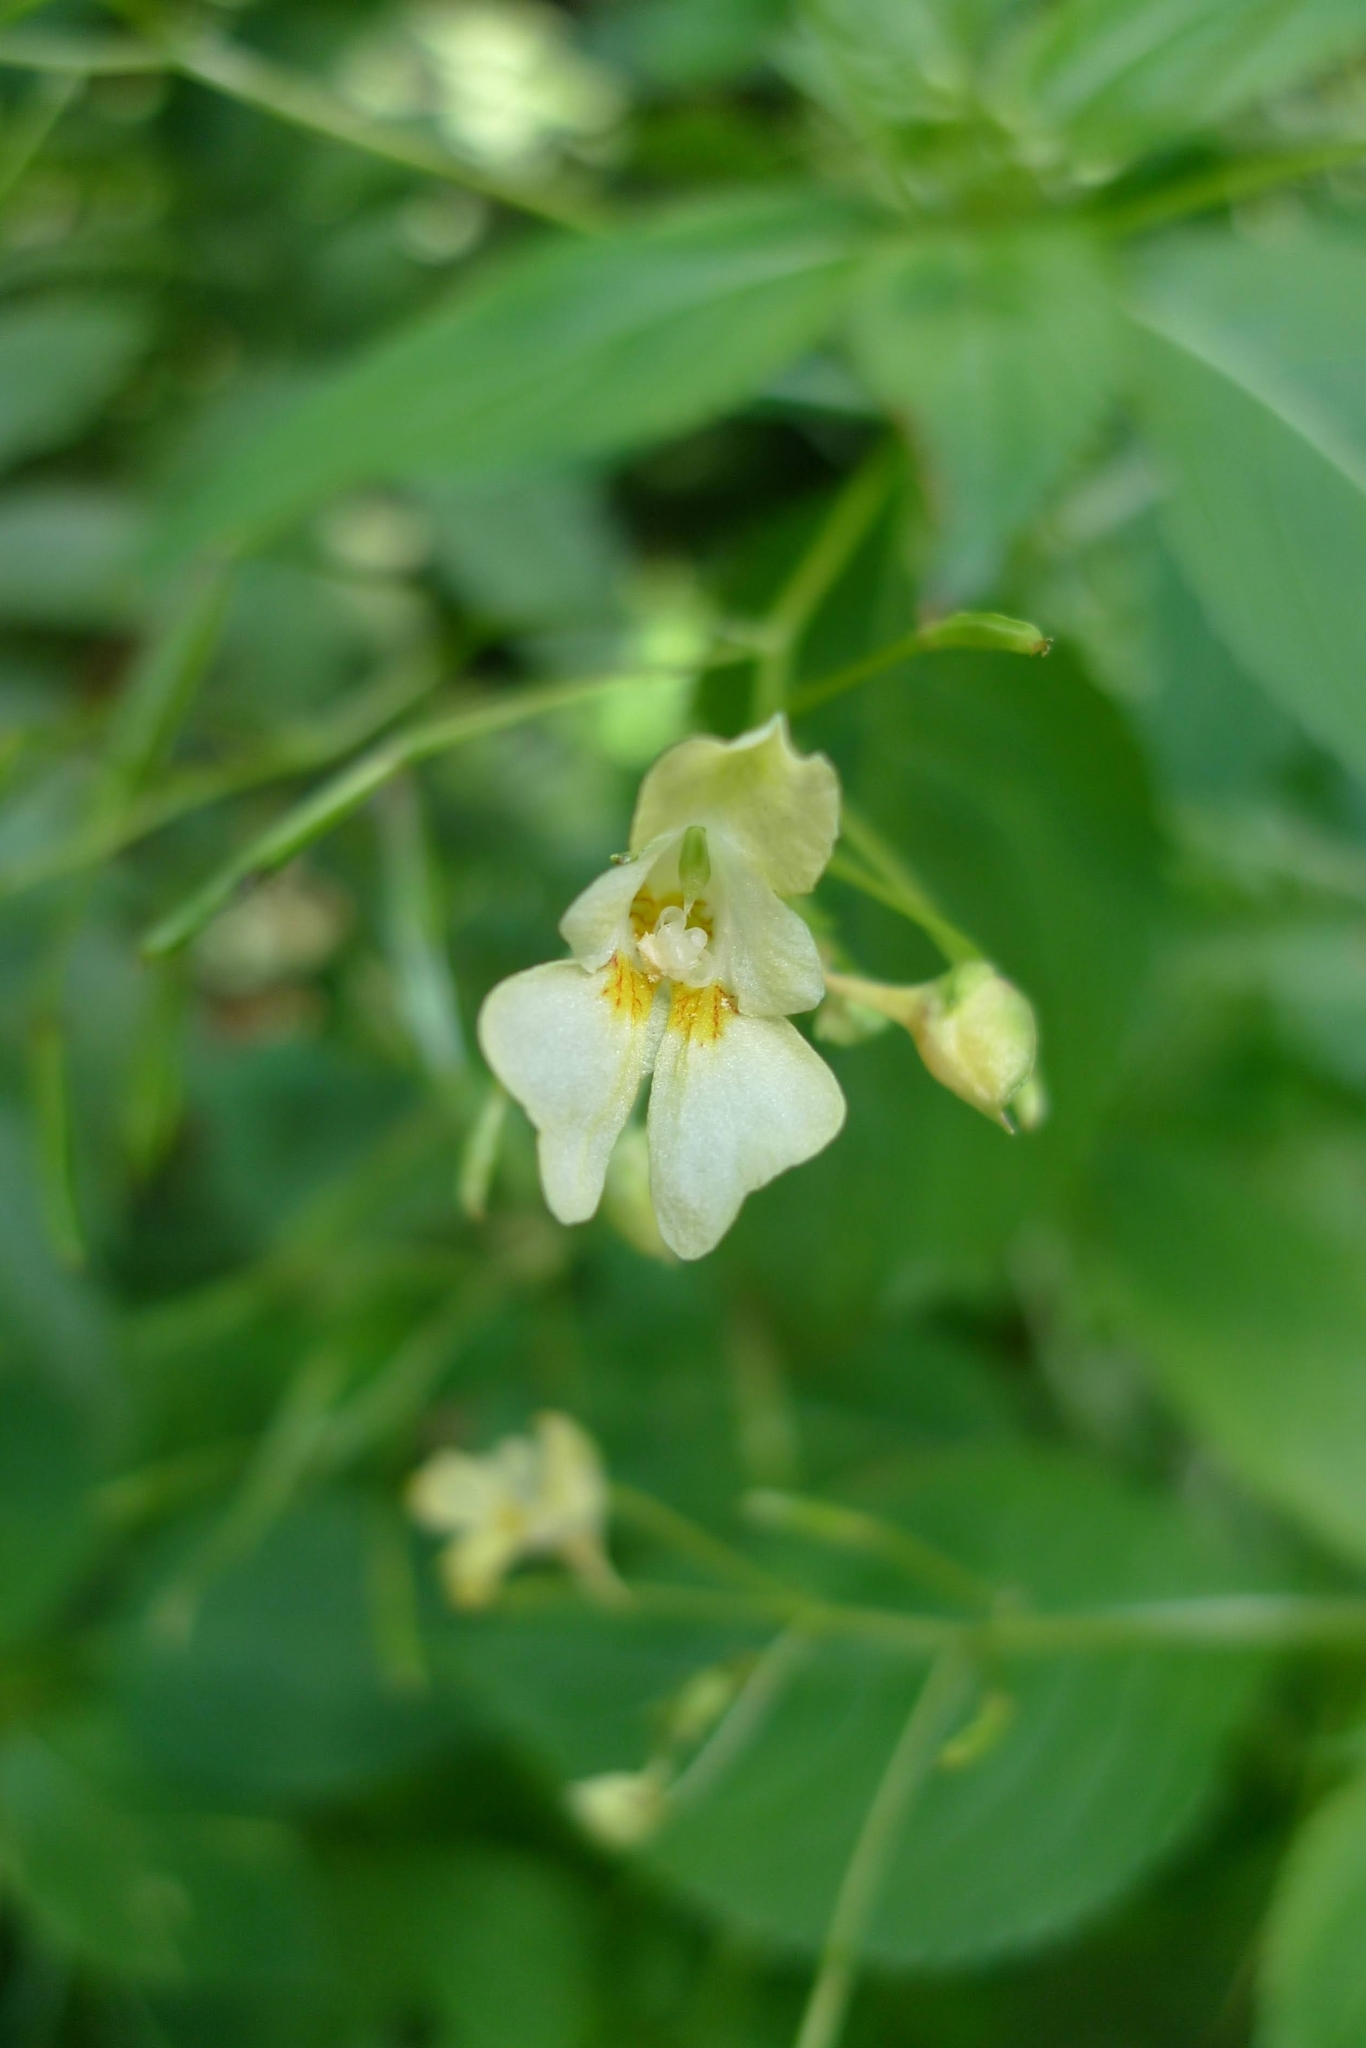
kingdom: Plantae
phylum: Tracheophyta
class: Magnoliopsida
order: Ericales
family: Balsaminaceae
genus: Impatiens
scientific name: Impatiens parviflora
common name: Small balsam
